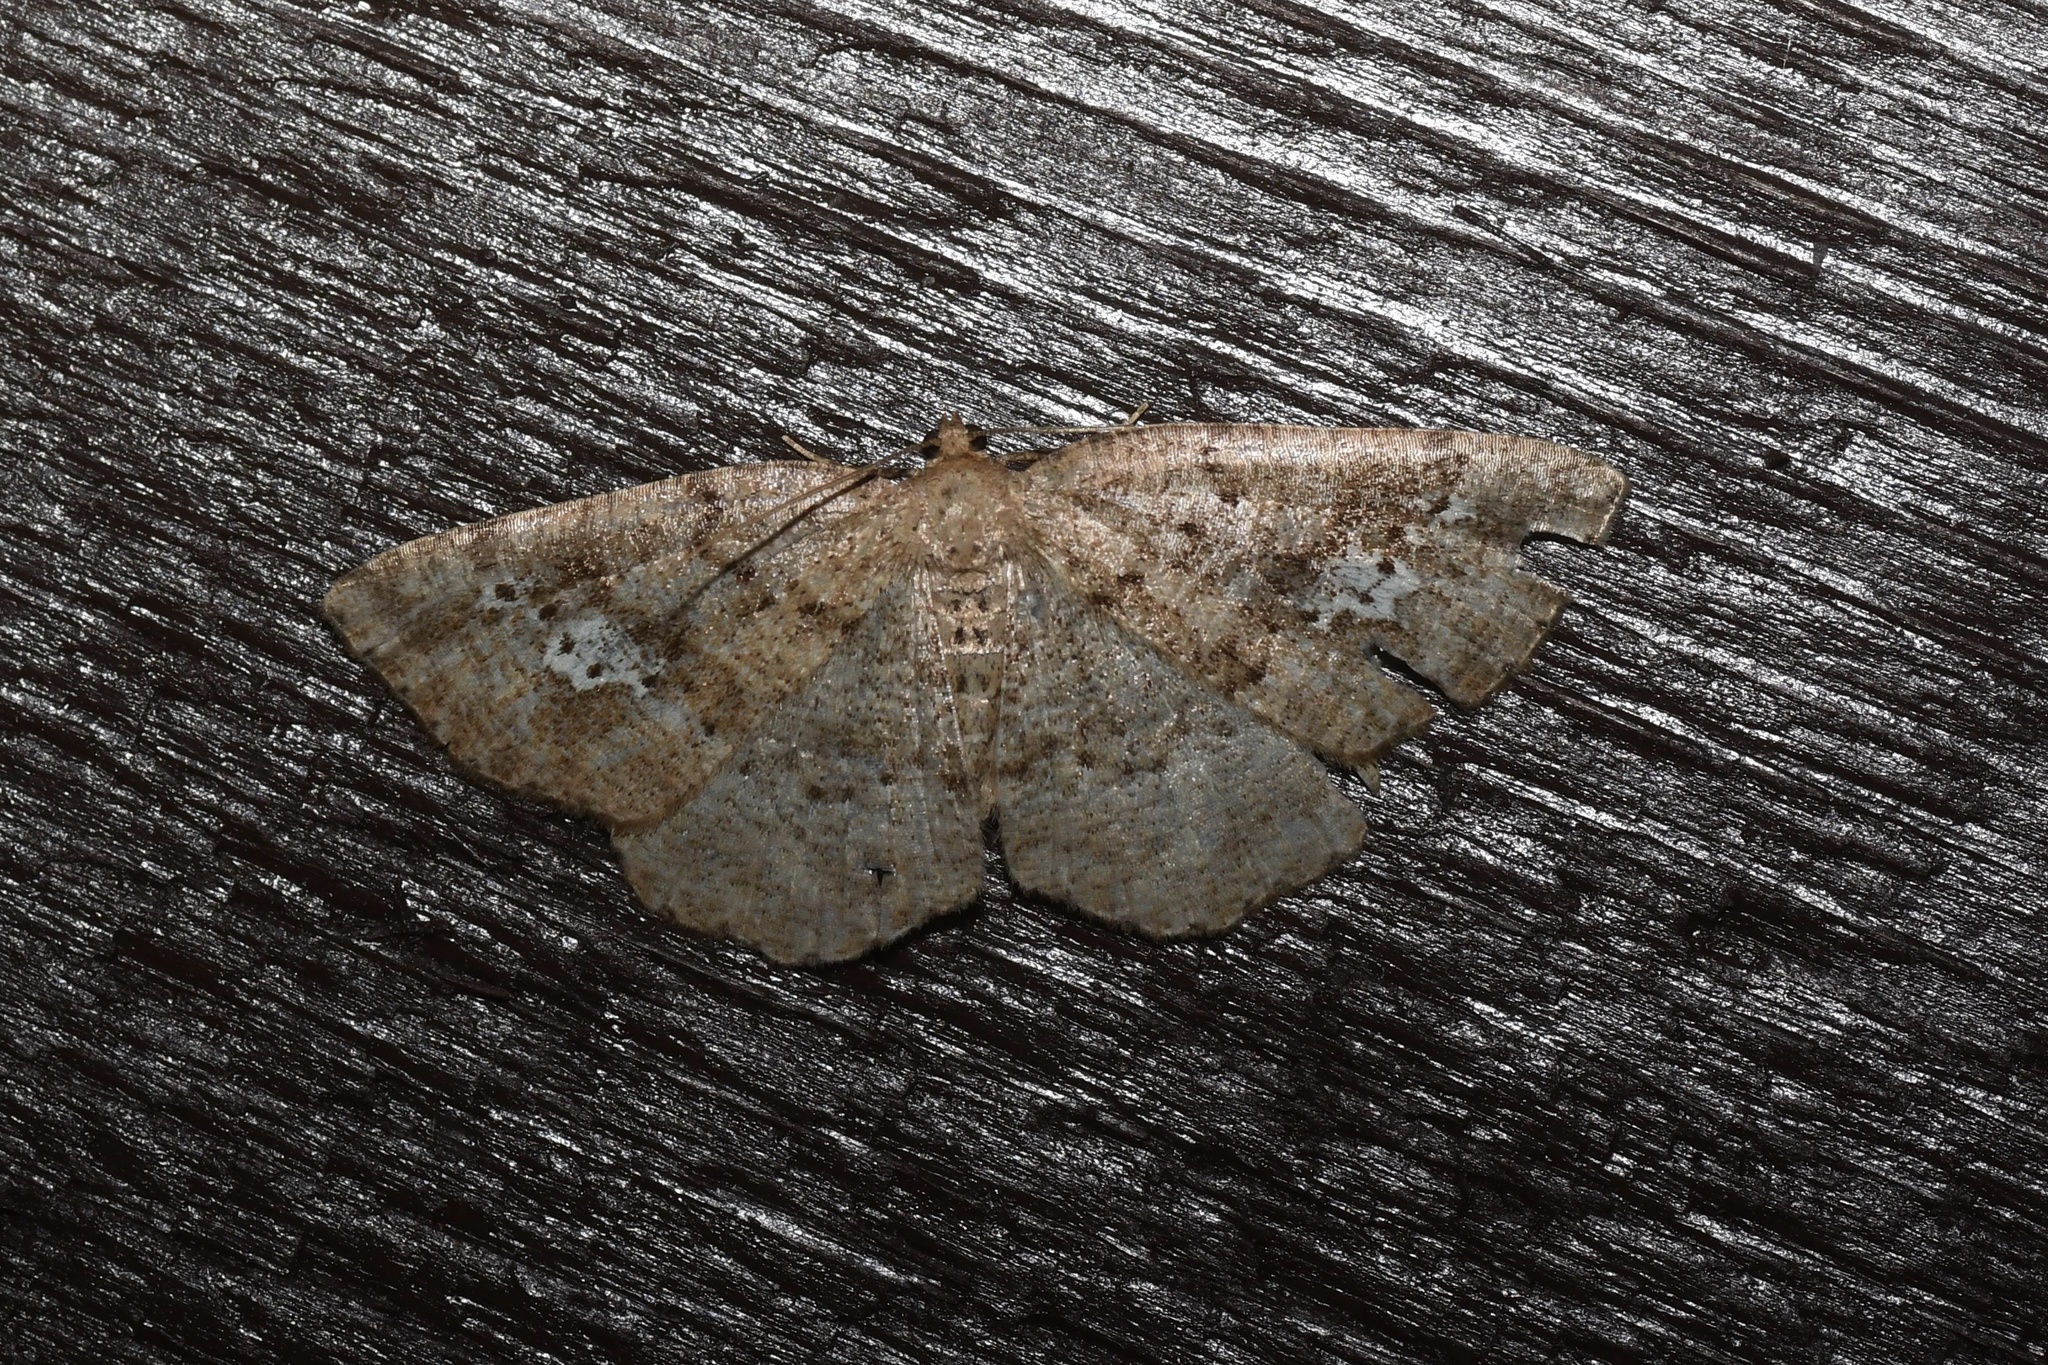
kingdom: Animalia
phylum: Arthropoda
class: Insecta
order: Lepidoptera
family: Geometridae
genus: Homochlodes
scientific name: Homochlodes fritillaria
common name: Pale homochlodes
